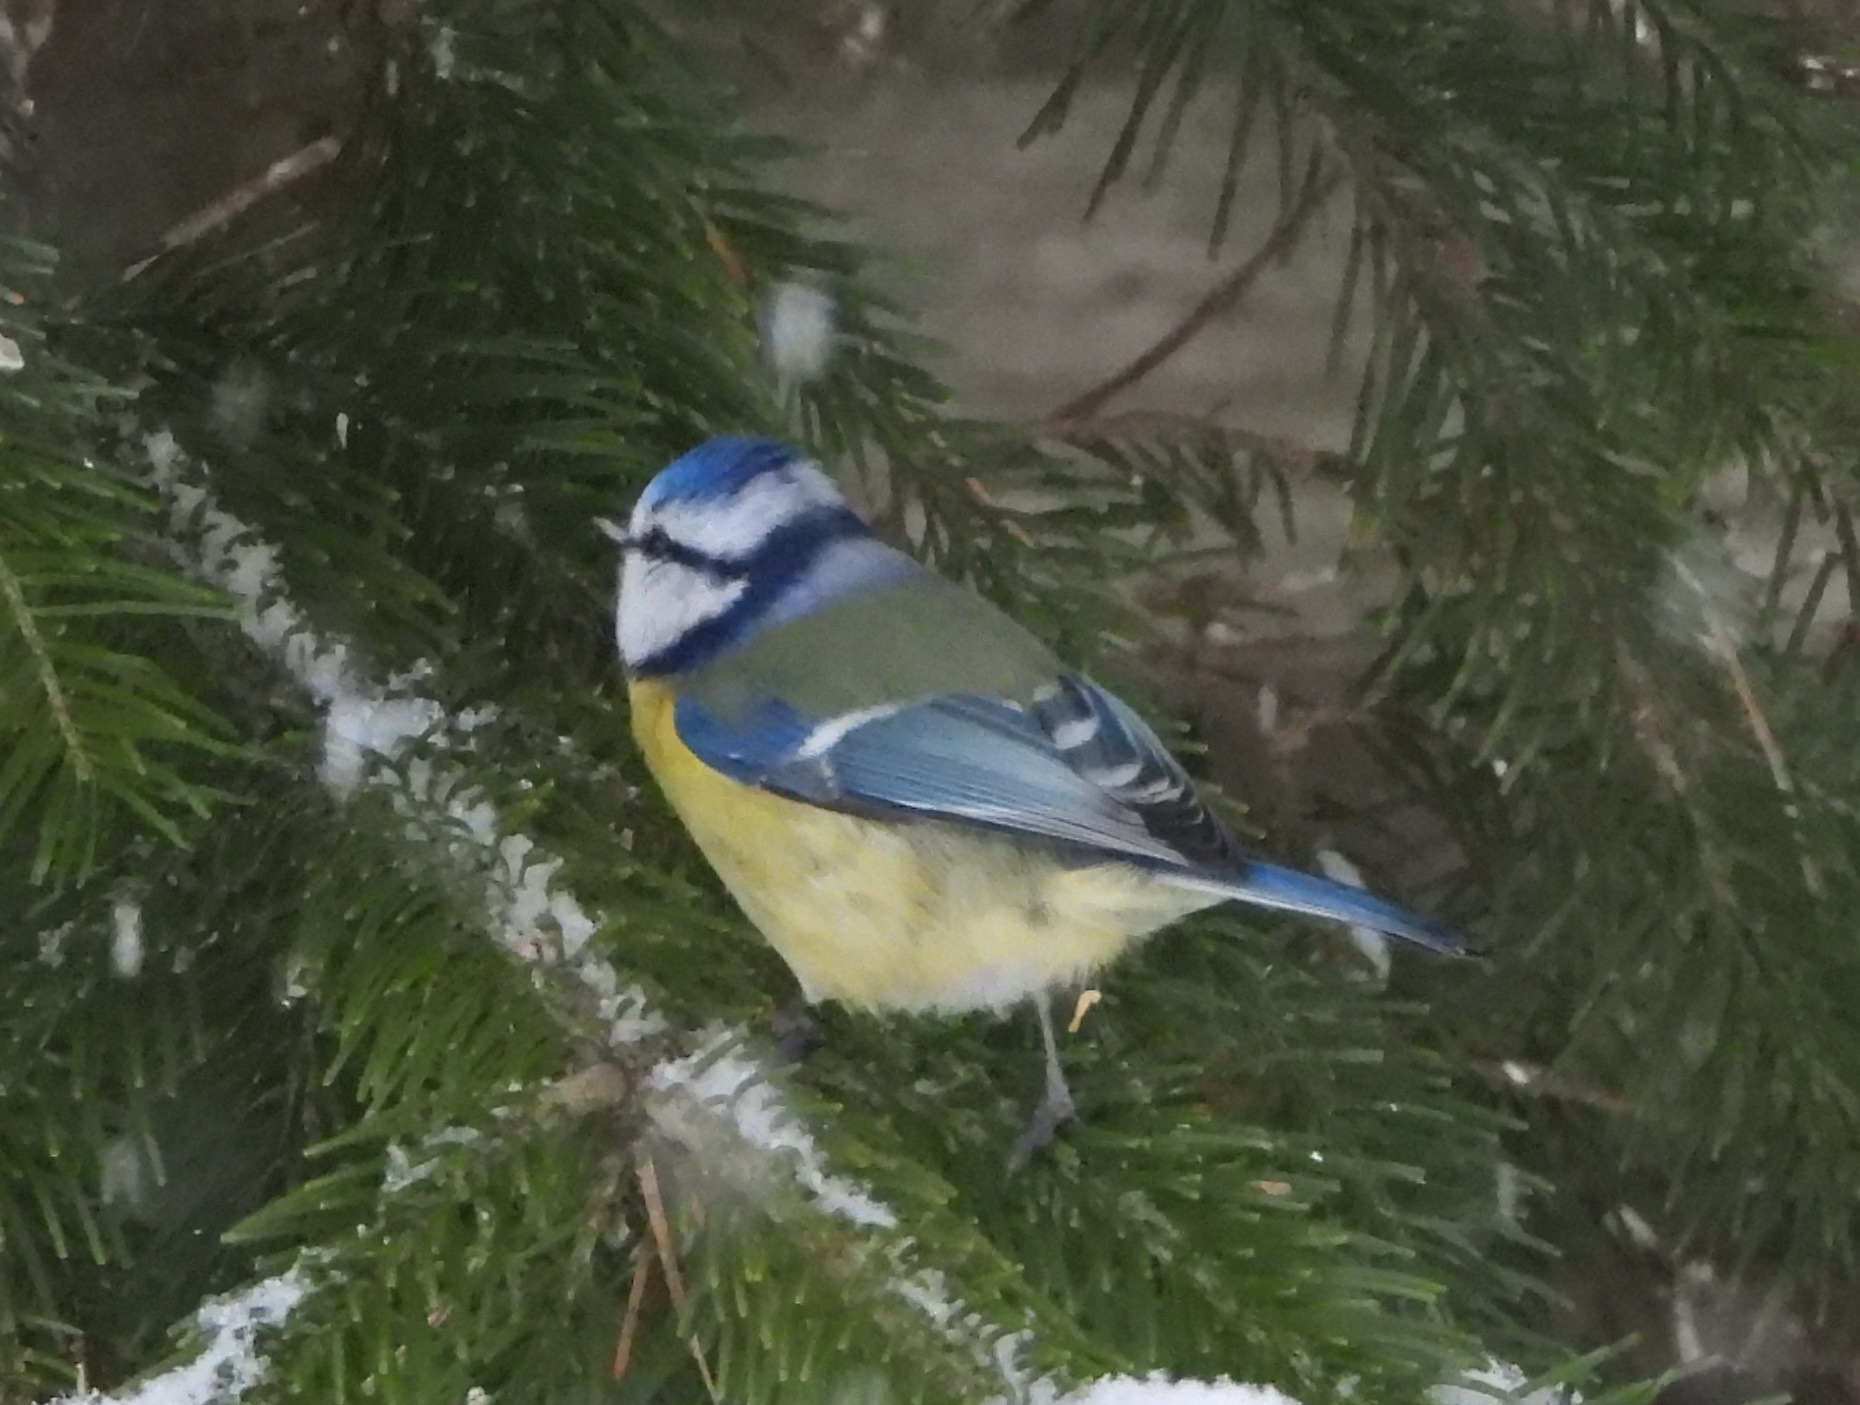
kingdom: Animalia
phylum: Chordata
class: Aves
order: Passeriformes
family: Paridae
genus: Cyanistes
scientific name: Cyanistes caeruleus
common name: Eurasian blue tit
